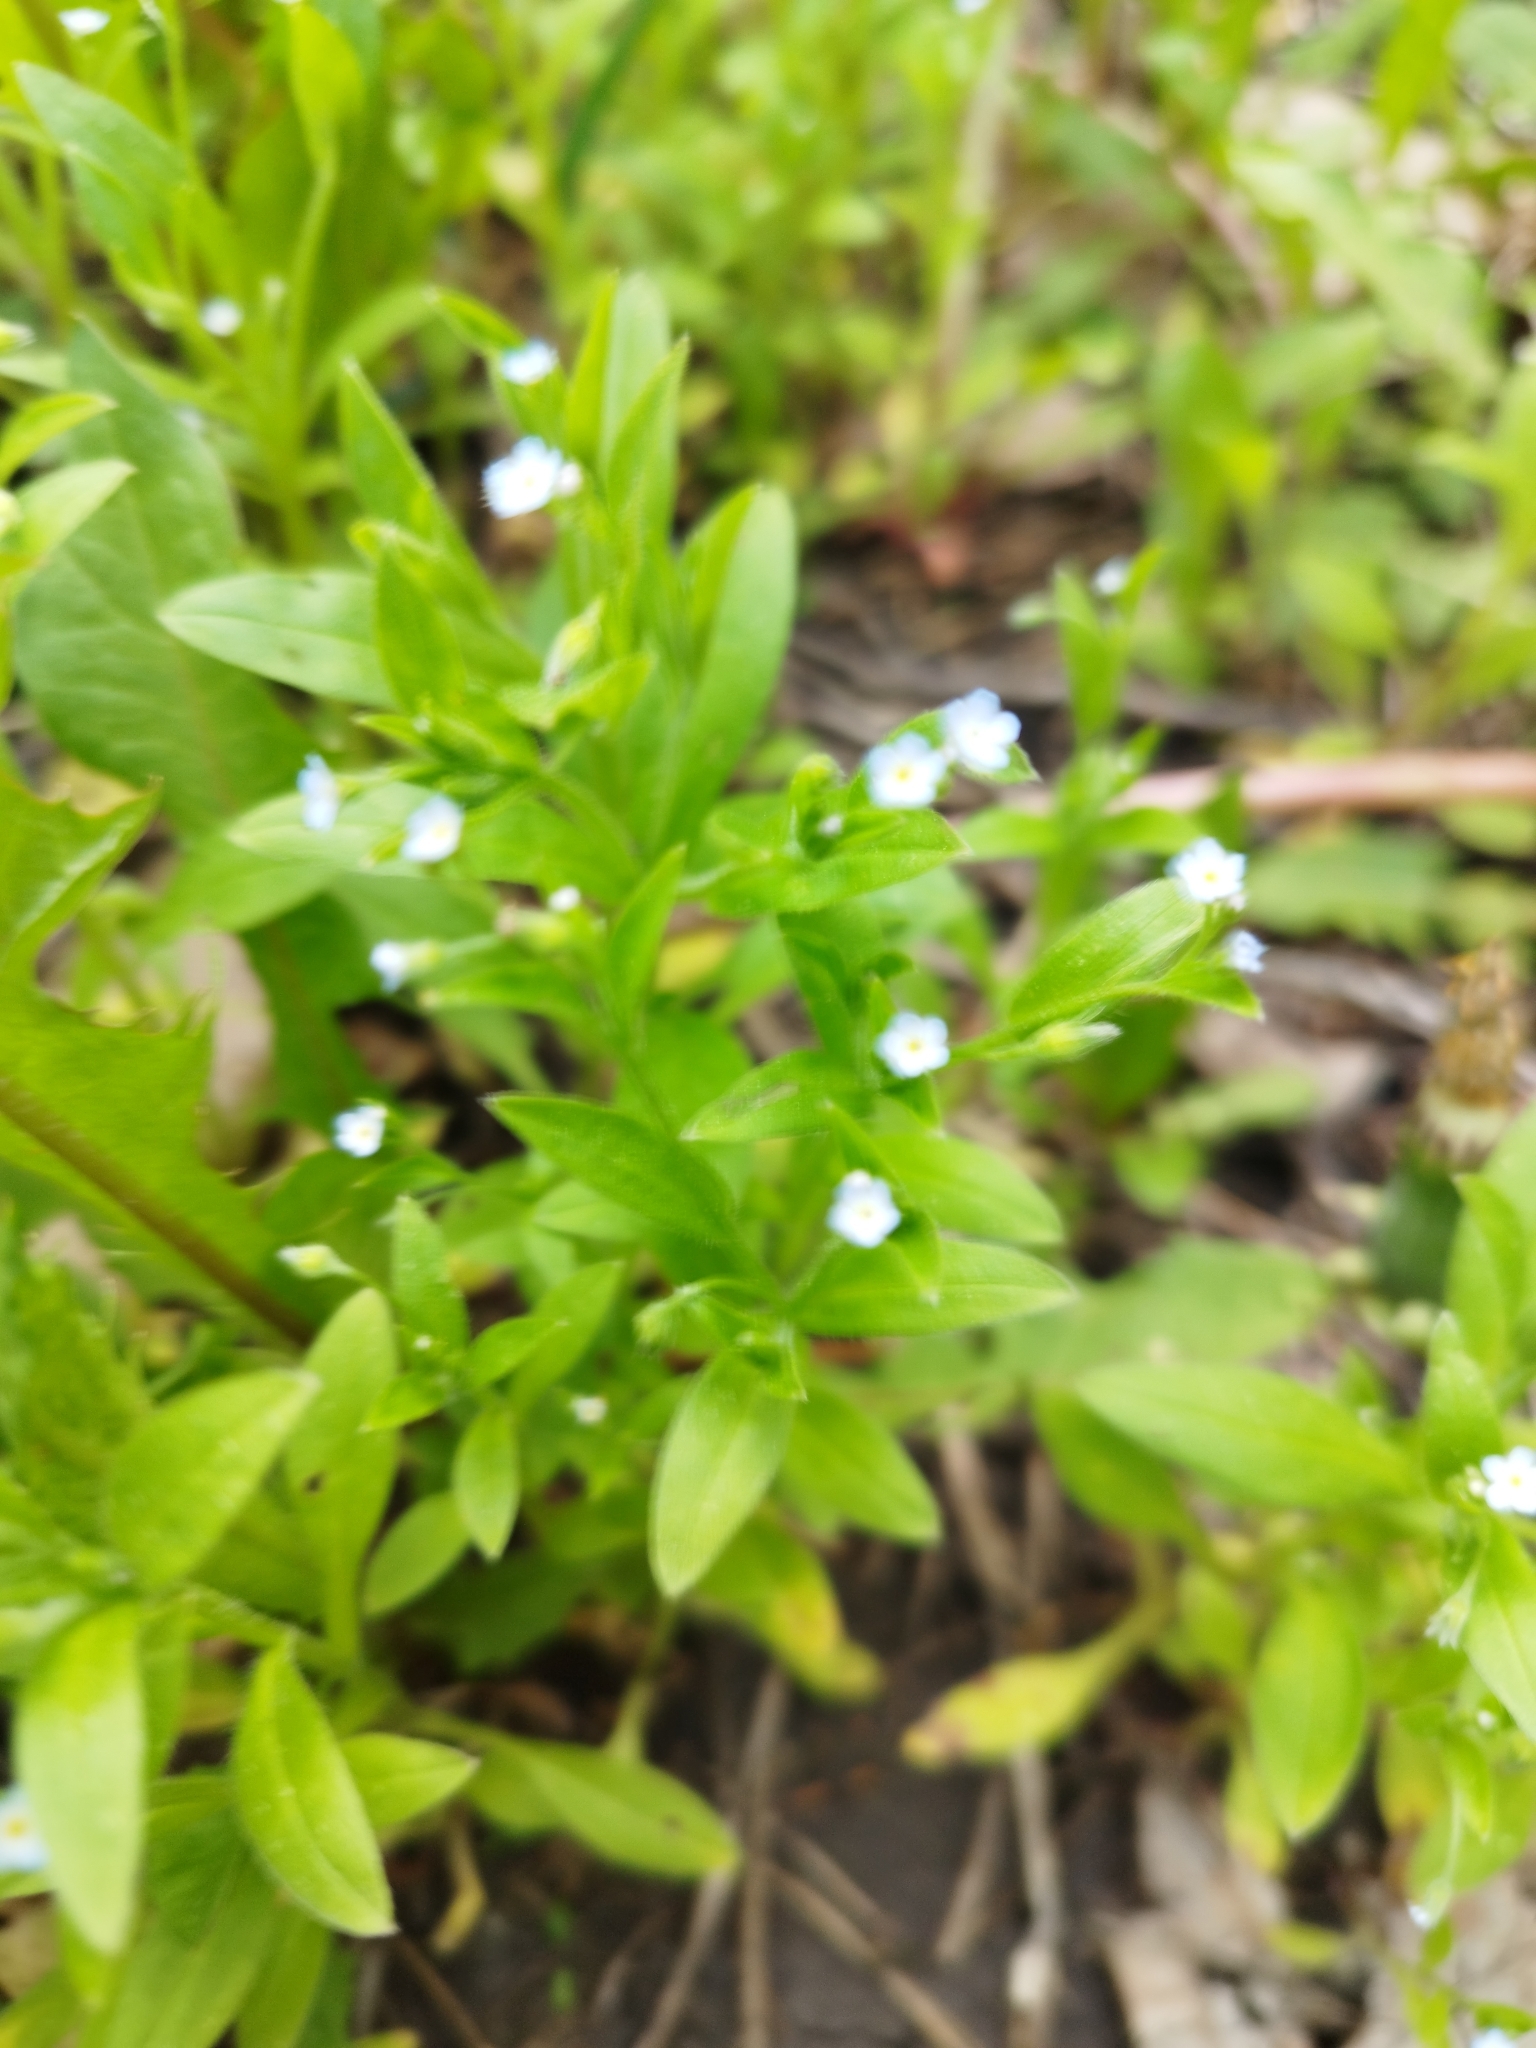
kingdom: Plantae
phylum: Tracheophyta
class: Magnoliopsida
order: Boraginales
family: Boraginaceae
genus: Myosotis
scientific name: Myosotis sparsiflora
